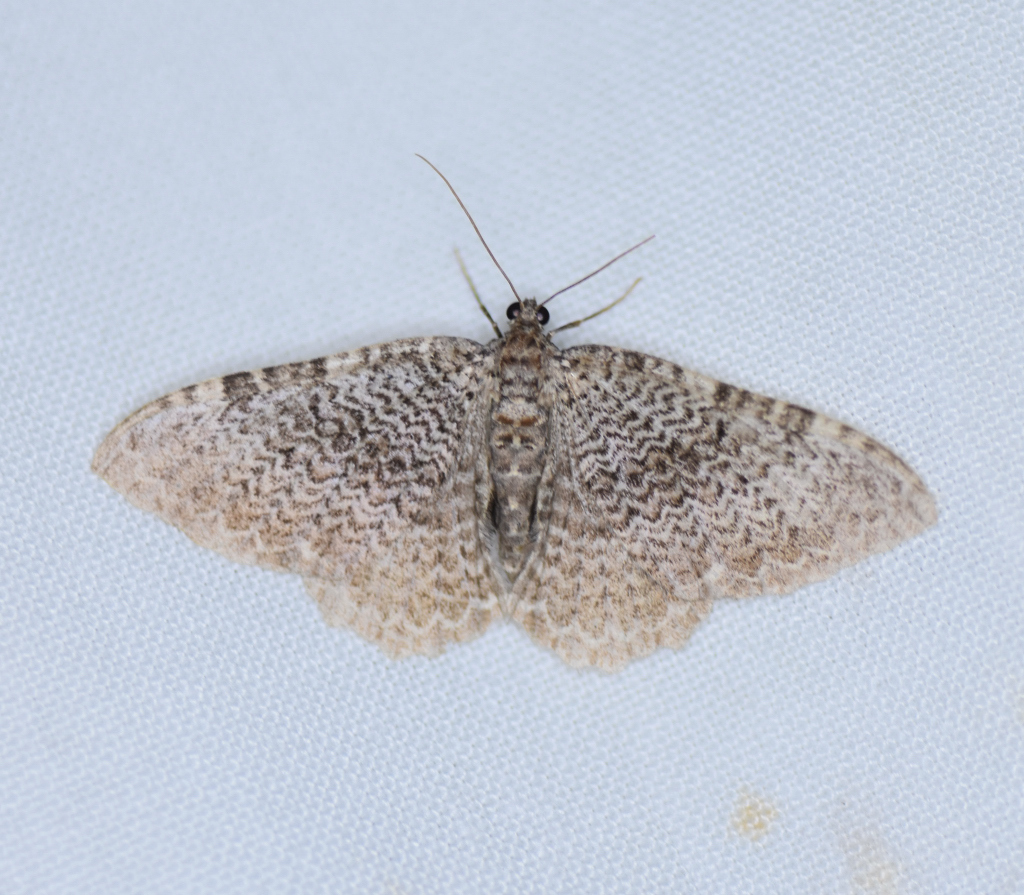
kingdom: Animalia
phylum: Arthropoda
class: Insecta
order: Lepidoptera
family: Geometridae
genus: Rheumaptera
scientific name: Rheumaptera prunivorata
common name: Cherry scallop shell moth
